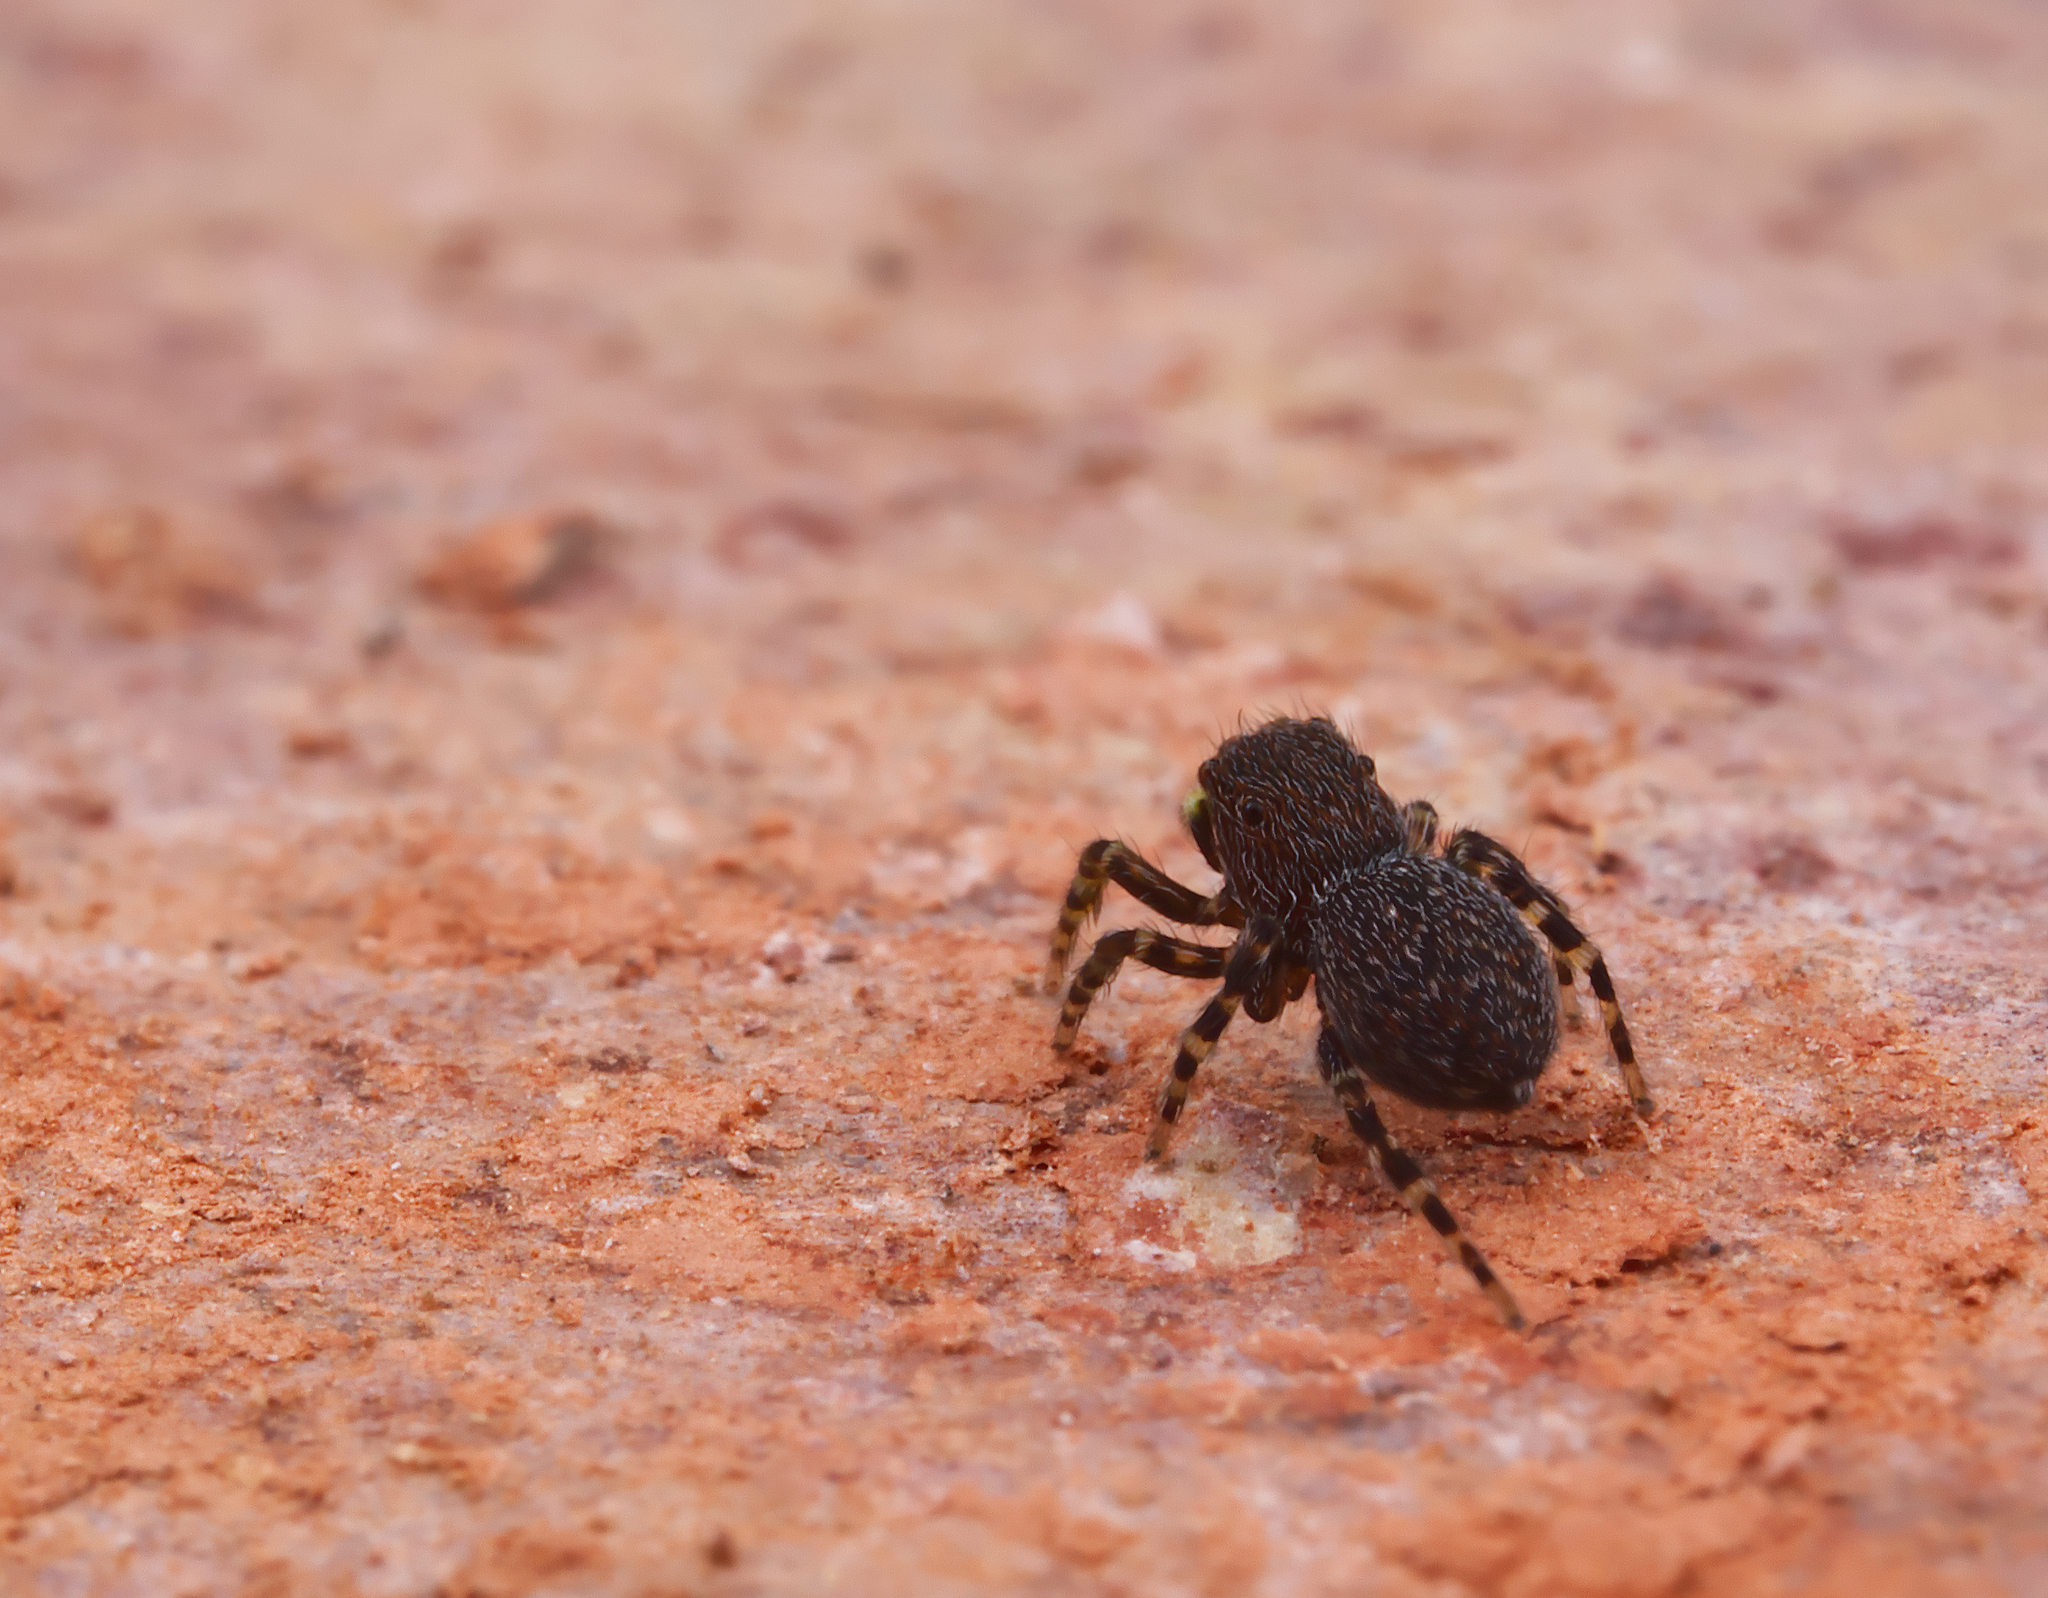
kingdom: Animalia
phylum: Arthropoda
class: Arachnida
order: Araneae
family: Salticidae
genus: Talavera
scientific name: Talavera minuta
